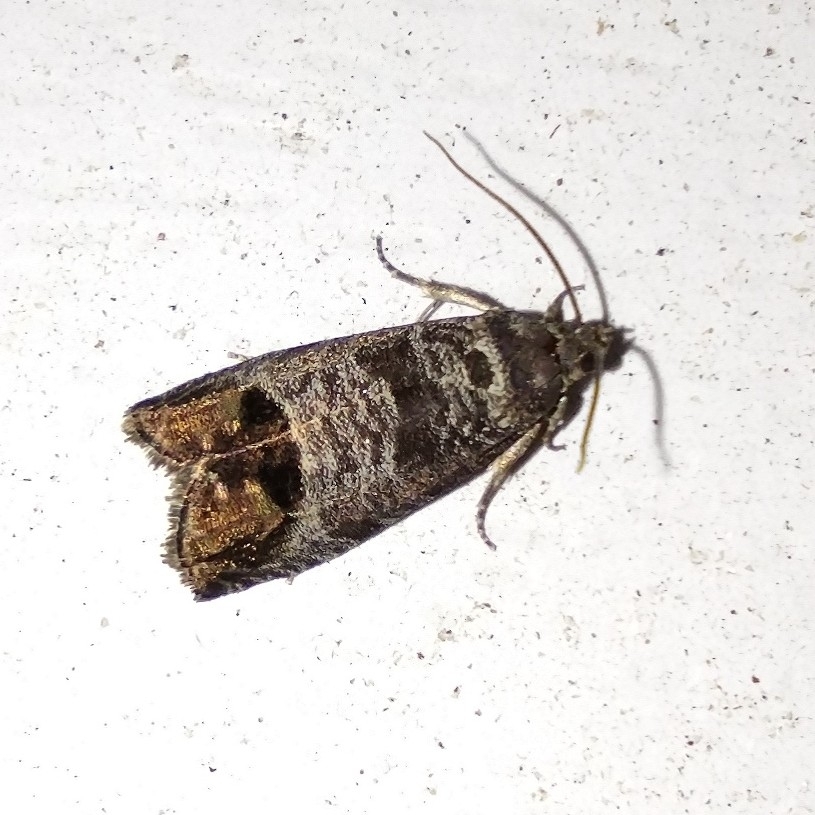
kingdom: Animalia
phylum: Arthropoda
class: Insecta
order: Lepidoptera
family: Tortricidae
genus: Cydia
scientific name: Cydia pomonella
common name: Codling moth
